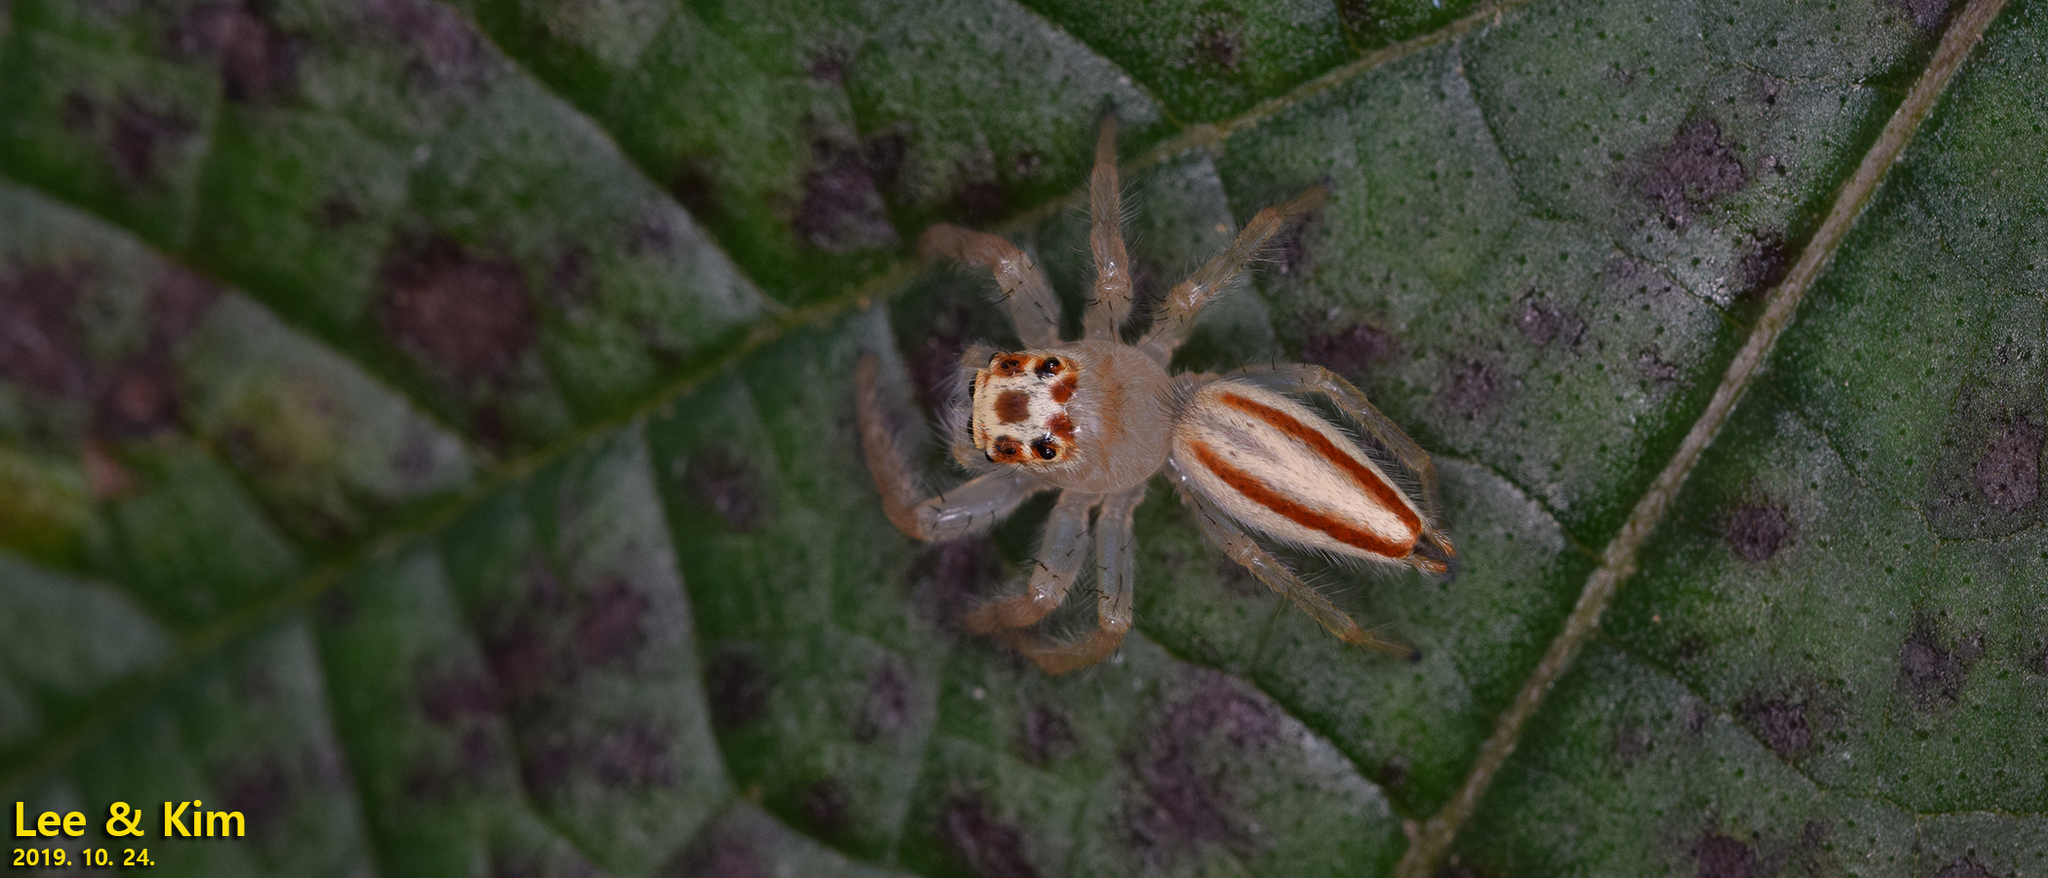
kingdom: Animalia
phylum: Arthropoda
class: Arachnida
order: Araneae
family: Salticidae
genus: Telamonia
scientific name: Telamonia vlijmi
